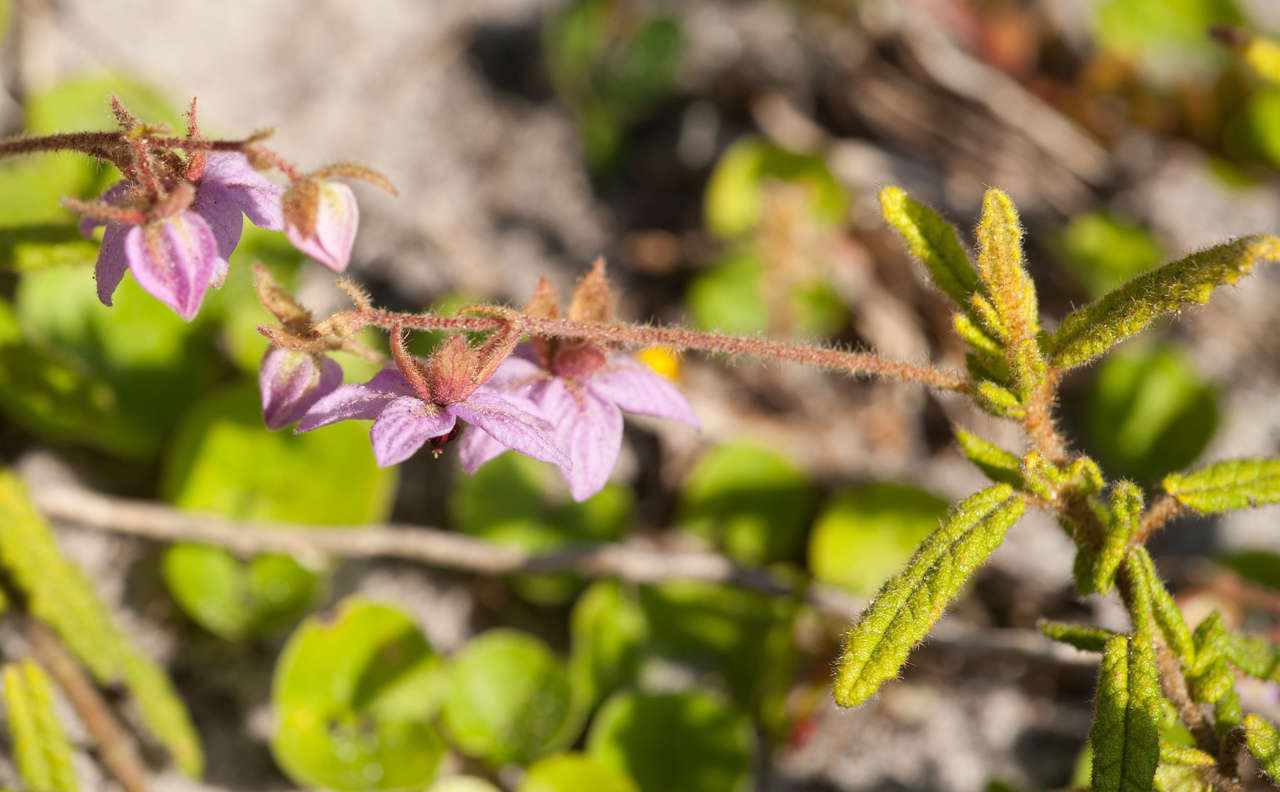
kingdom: Plantae
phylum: Tracheophyta
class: Magnoliopsida
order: Malvales
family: Malvaceae
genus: Thomasia
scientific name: Thomasia petalocalyx
